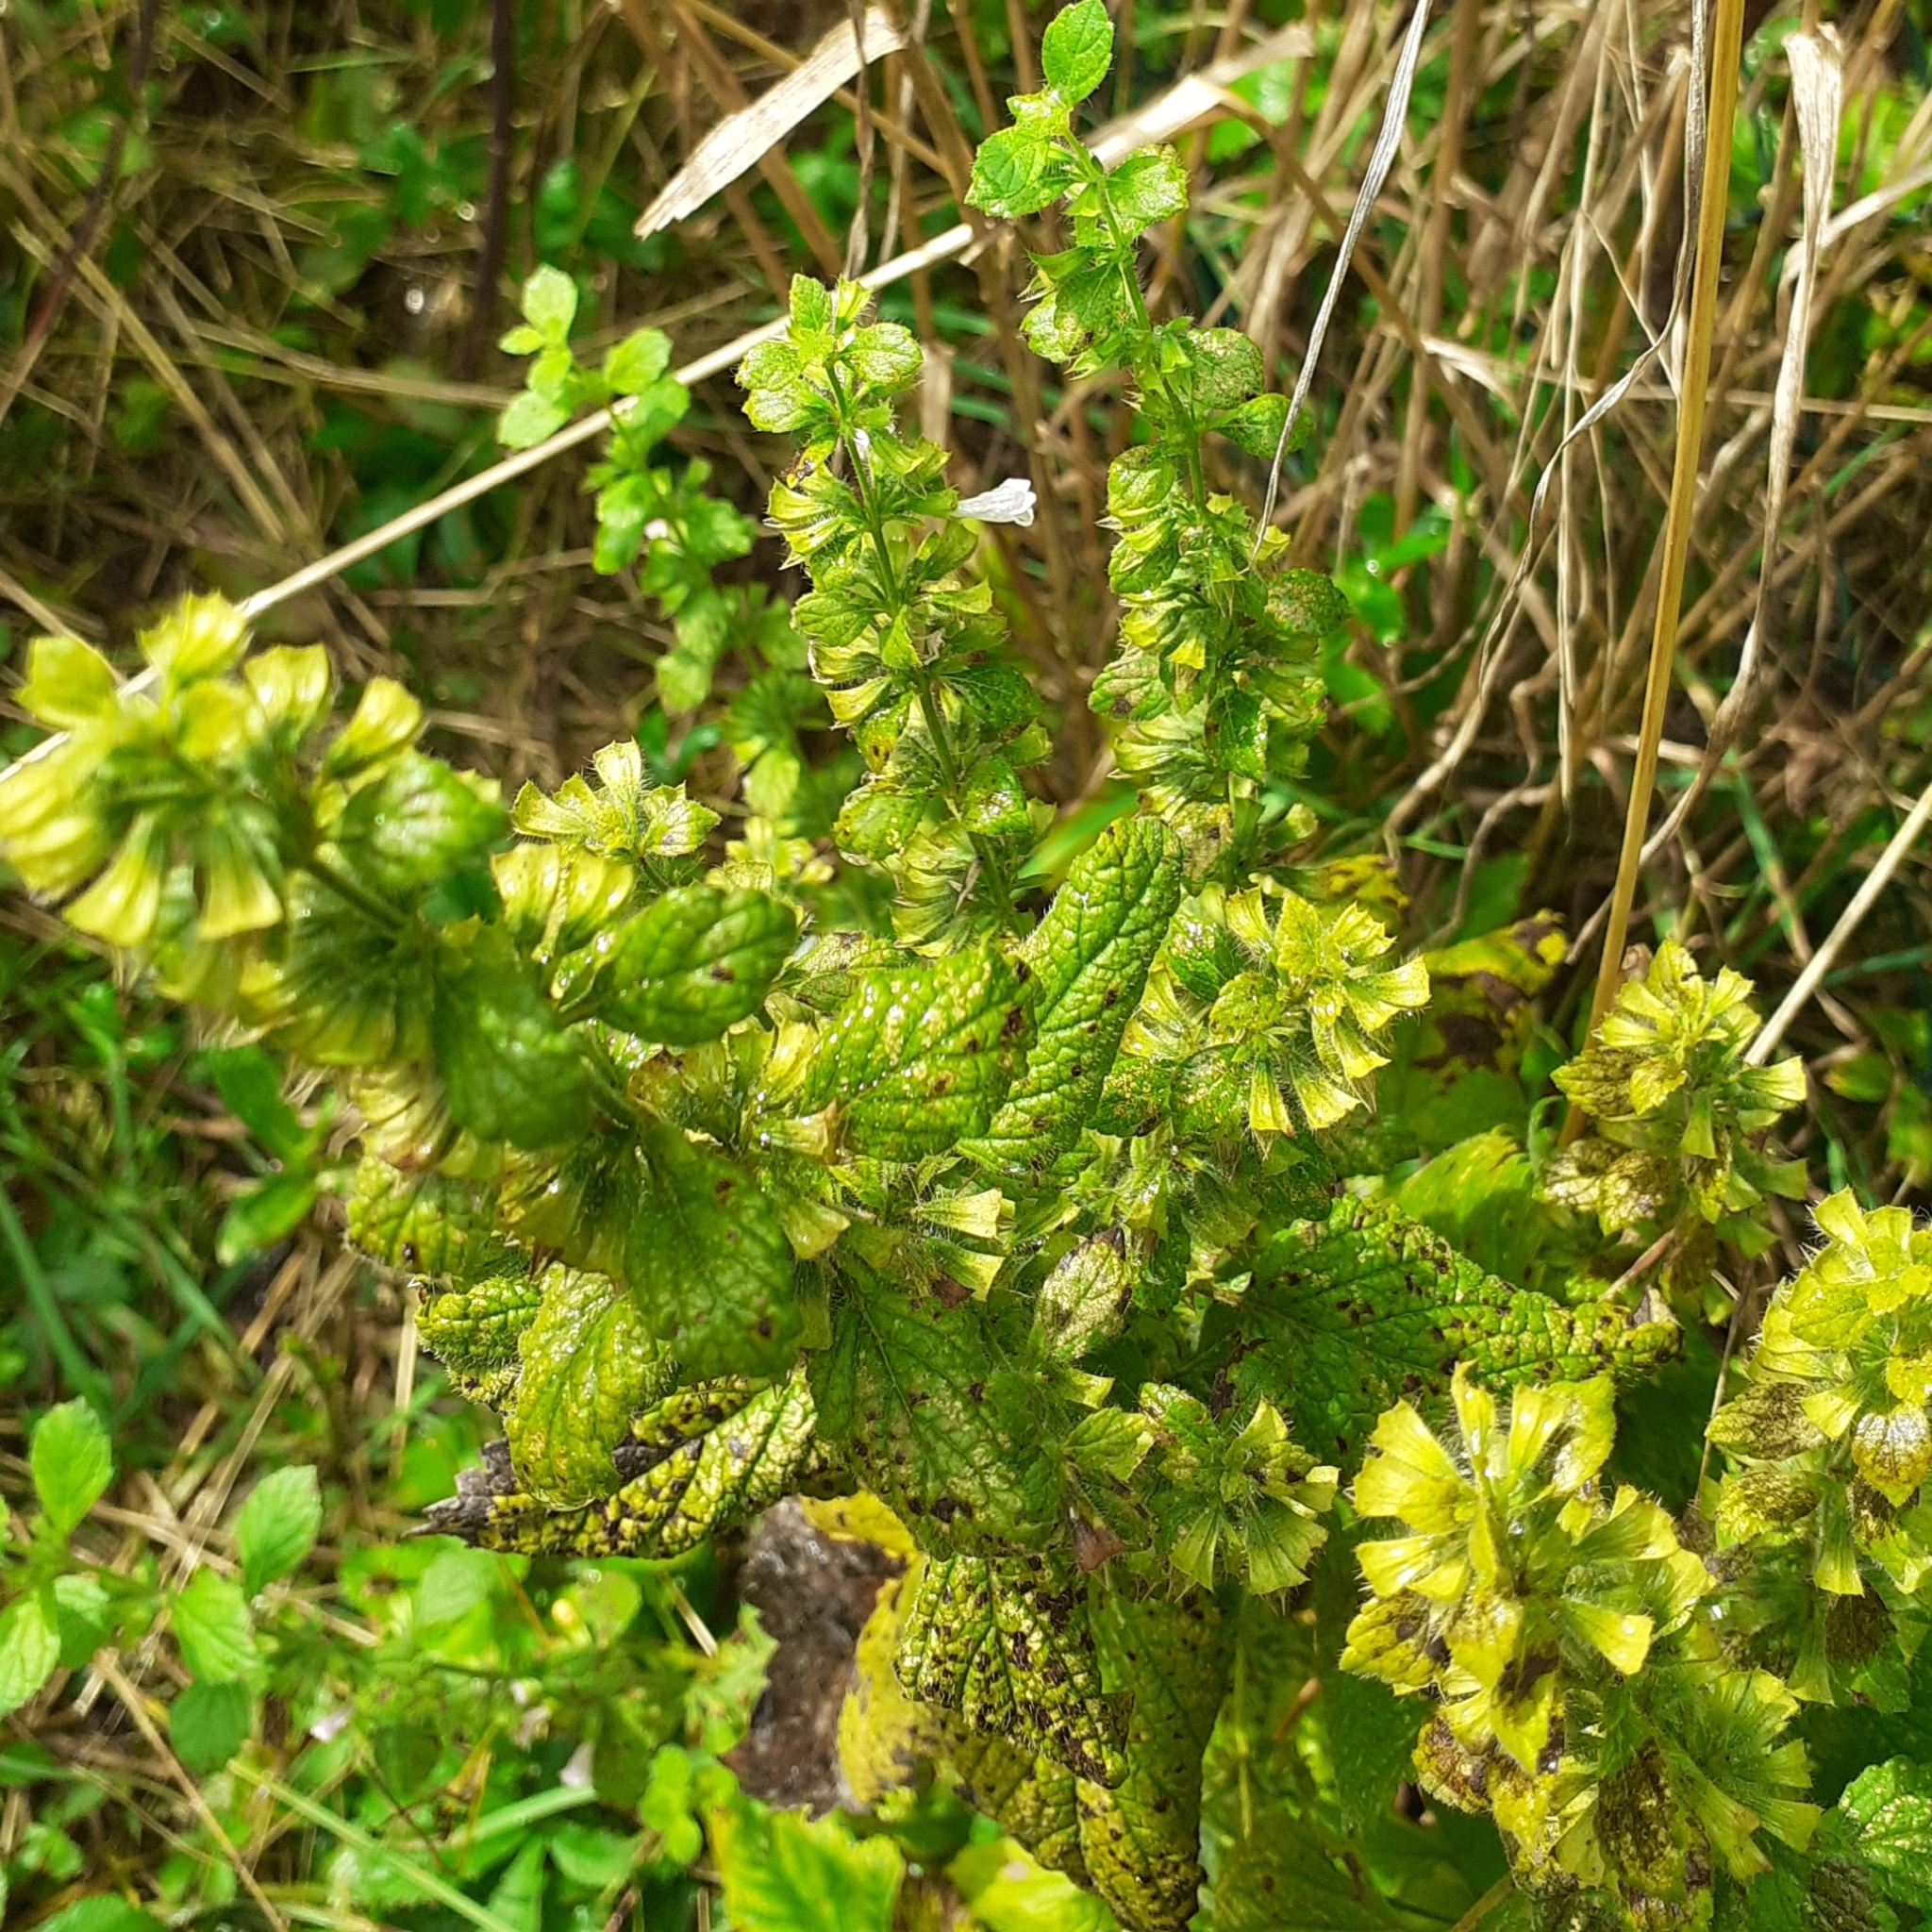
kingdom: Plantae
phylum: Tracheophyta
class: Magnoliopsida
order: Lamiales
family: Lamiaceae
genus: Melissa
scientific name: Melissa officinalis
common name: Balm
